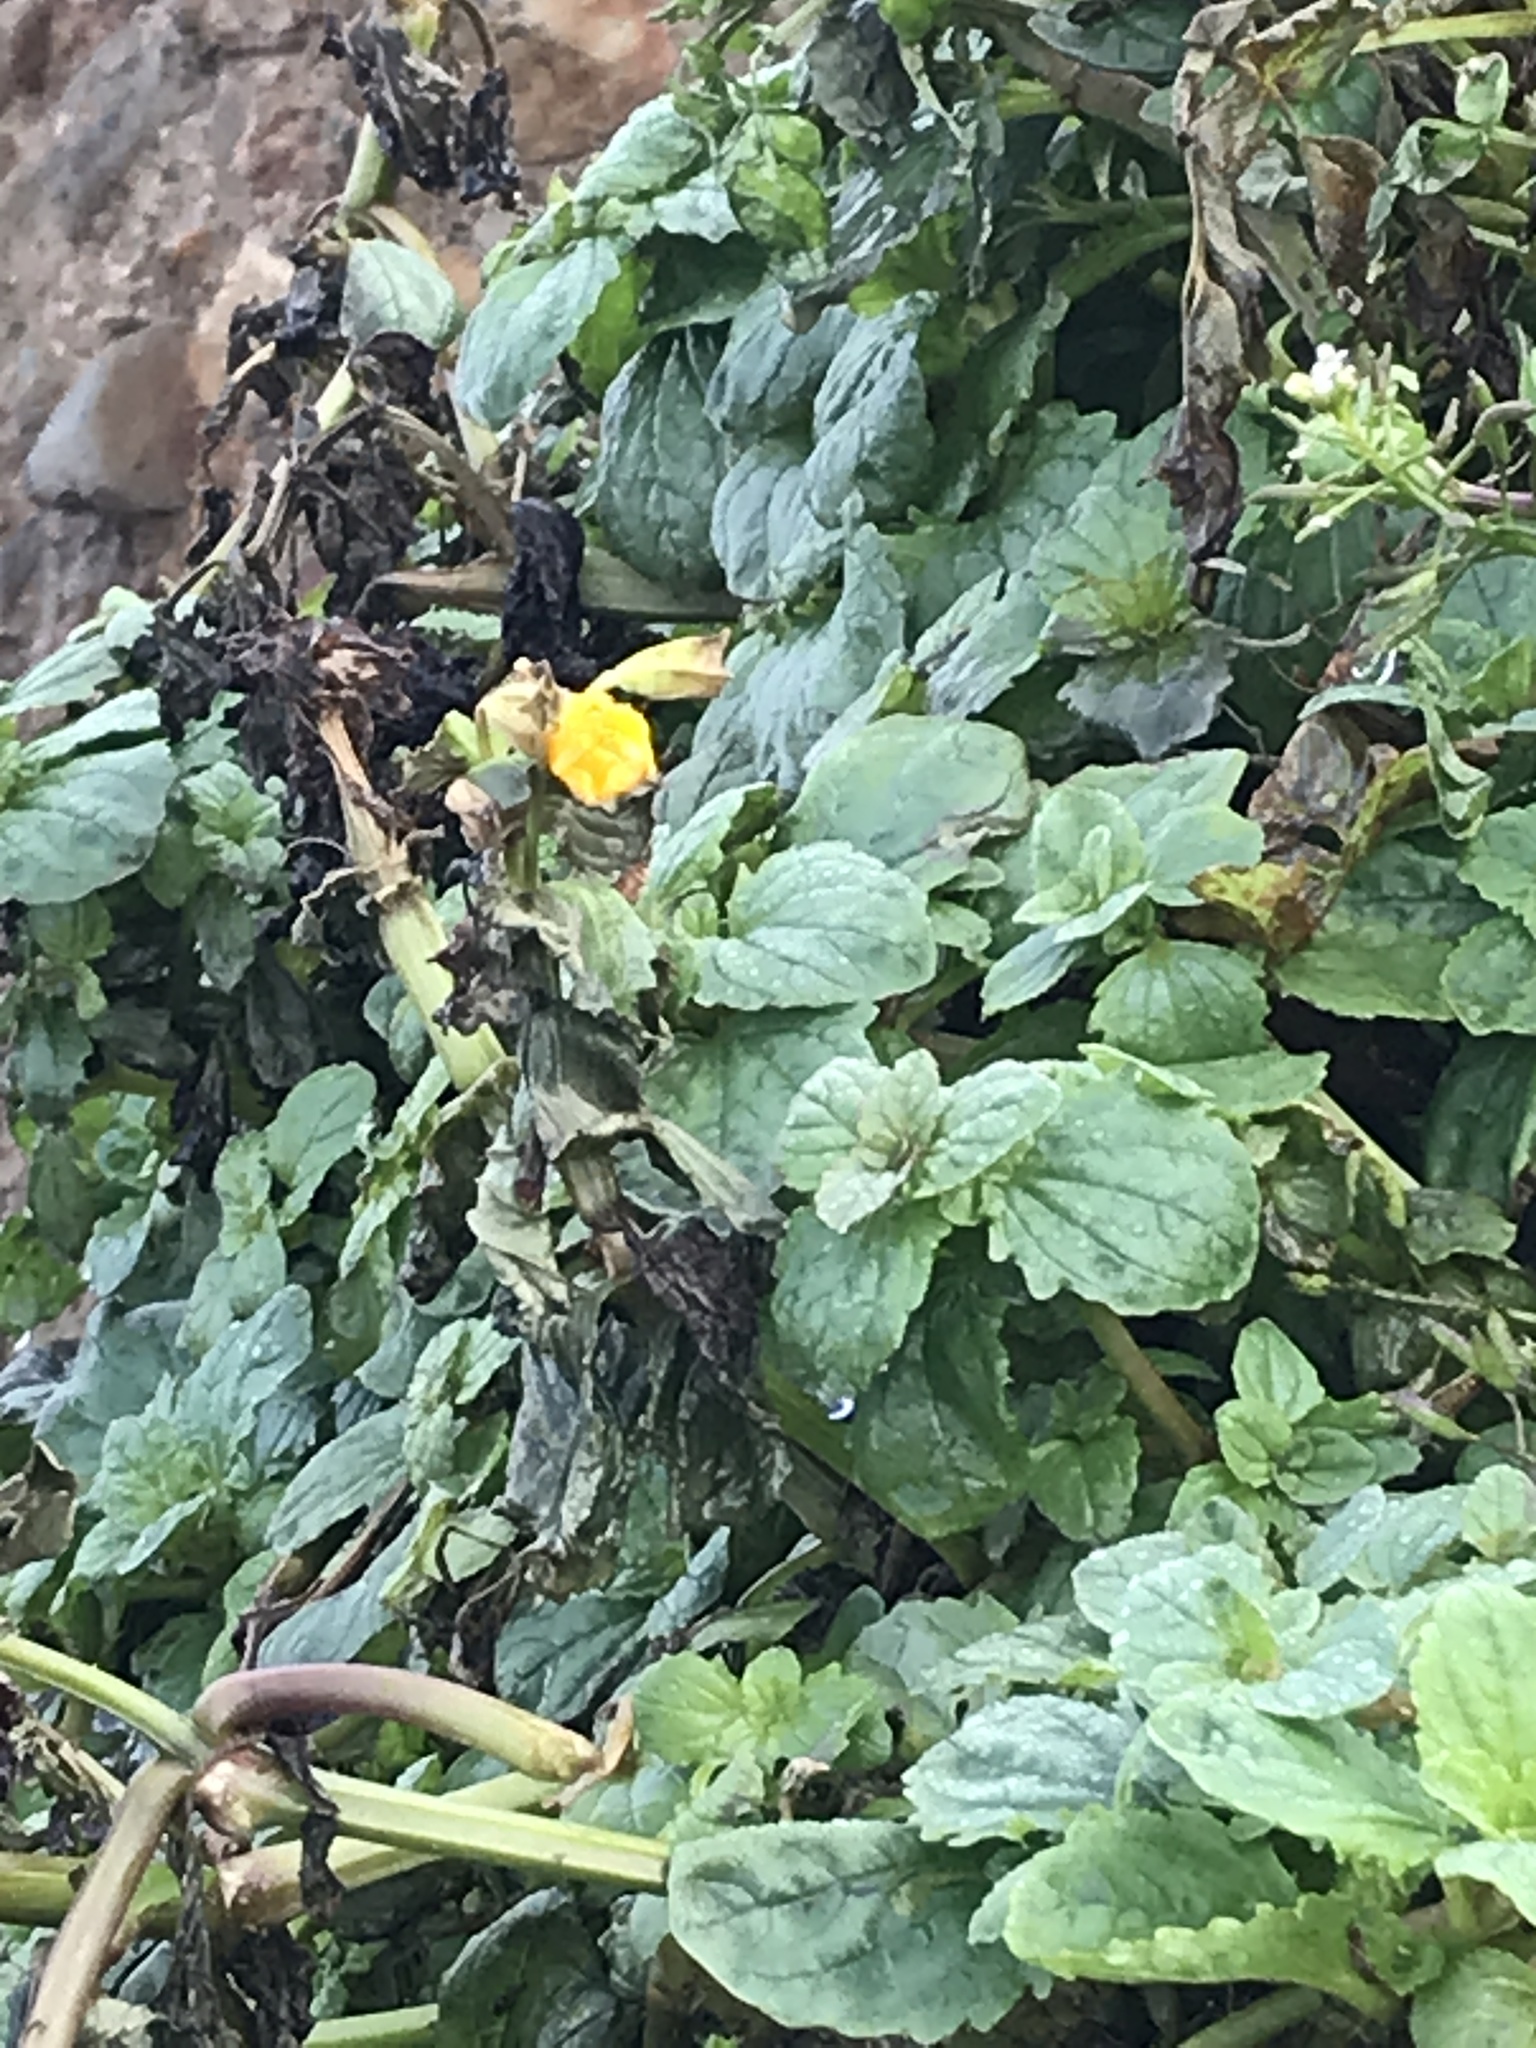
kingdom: Plantae
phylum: Tracheophyta
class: Magnoliopsida
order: Lamiales
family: Phrymaceae
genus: Erythranthe
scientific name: Erythranthe grandis
